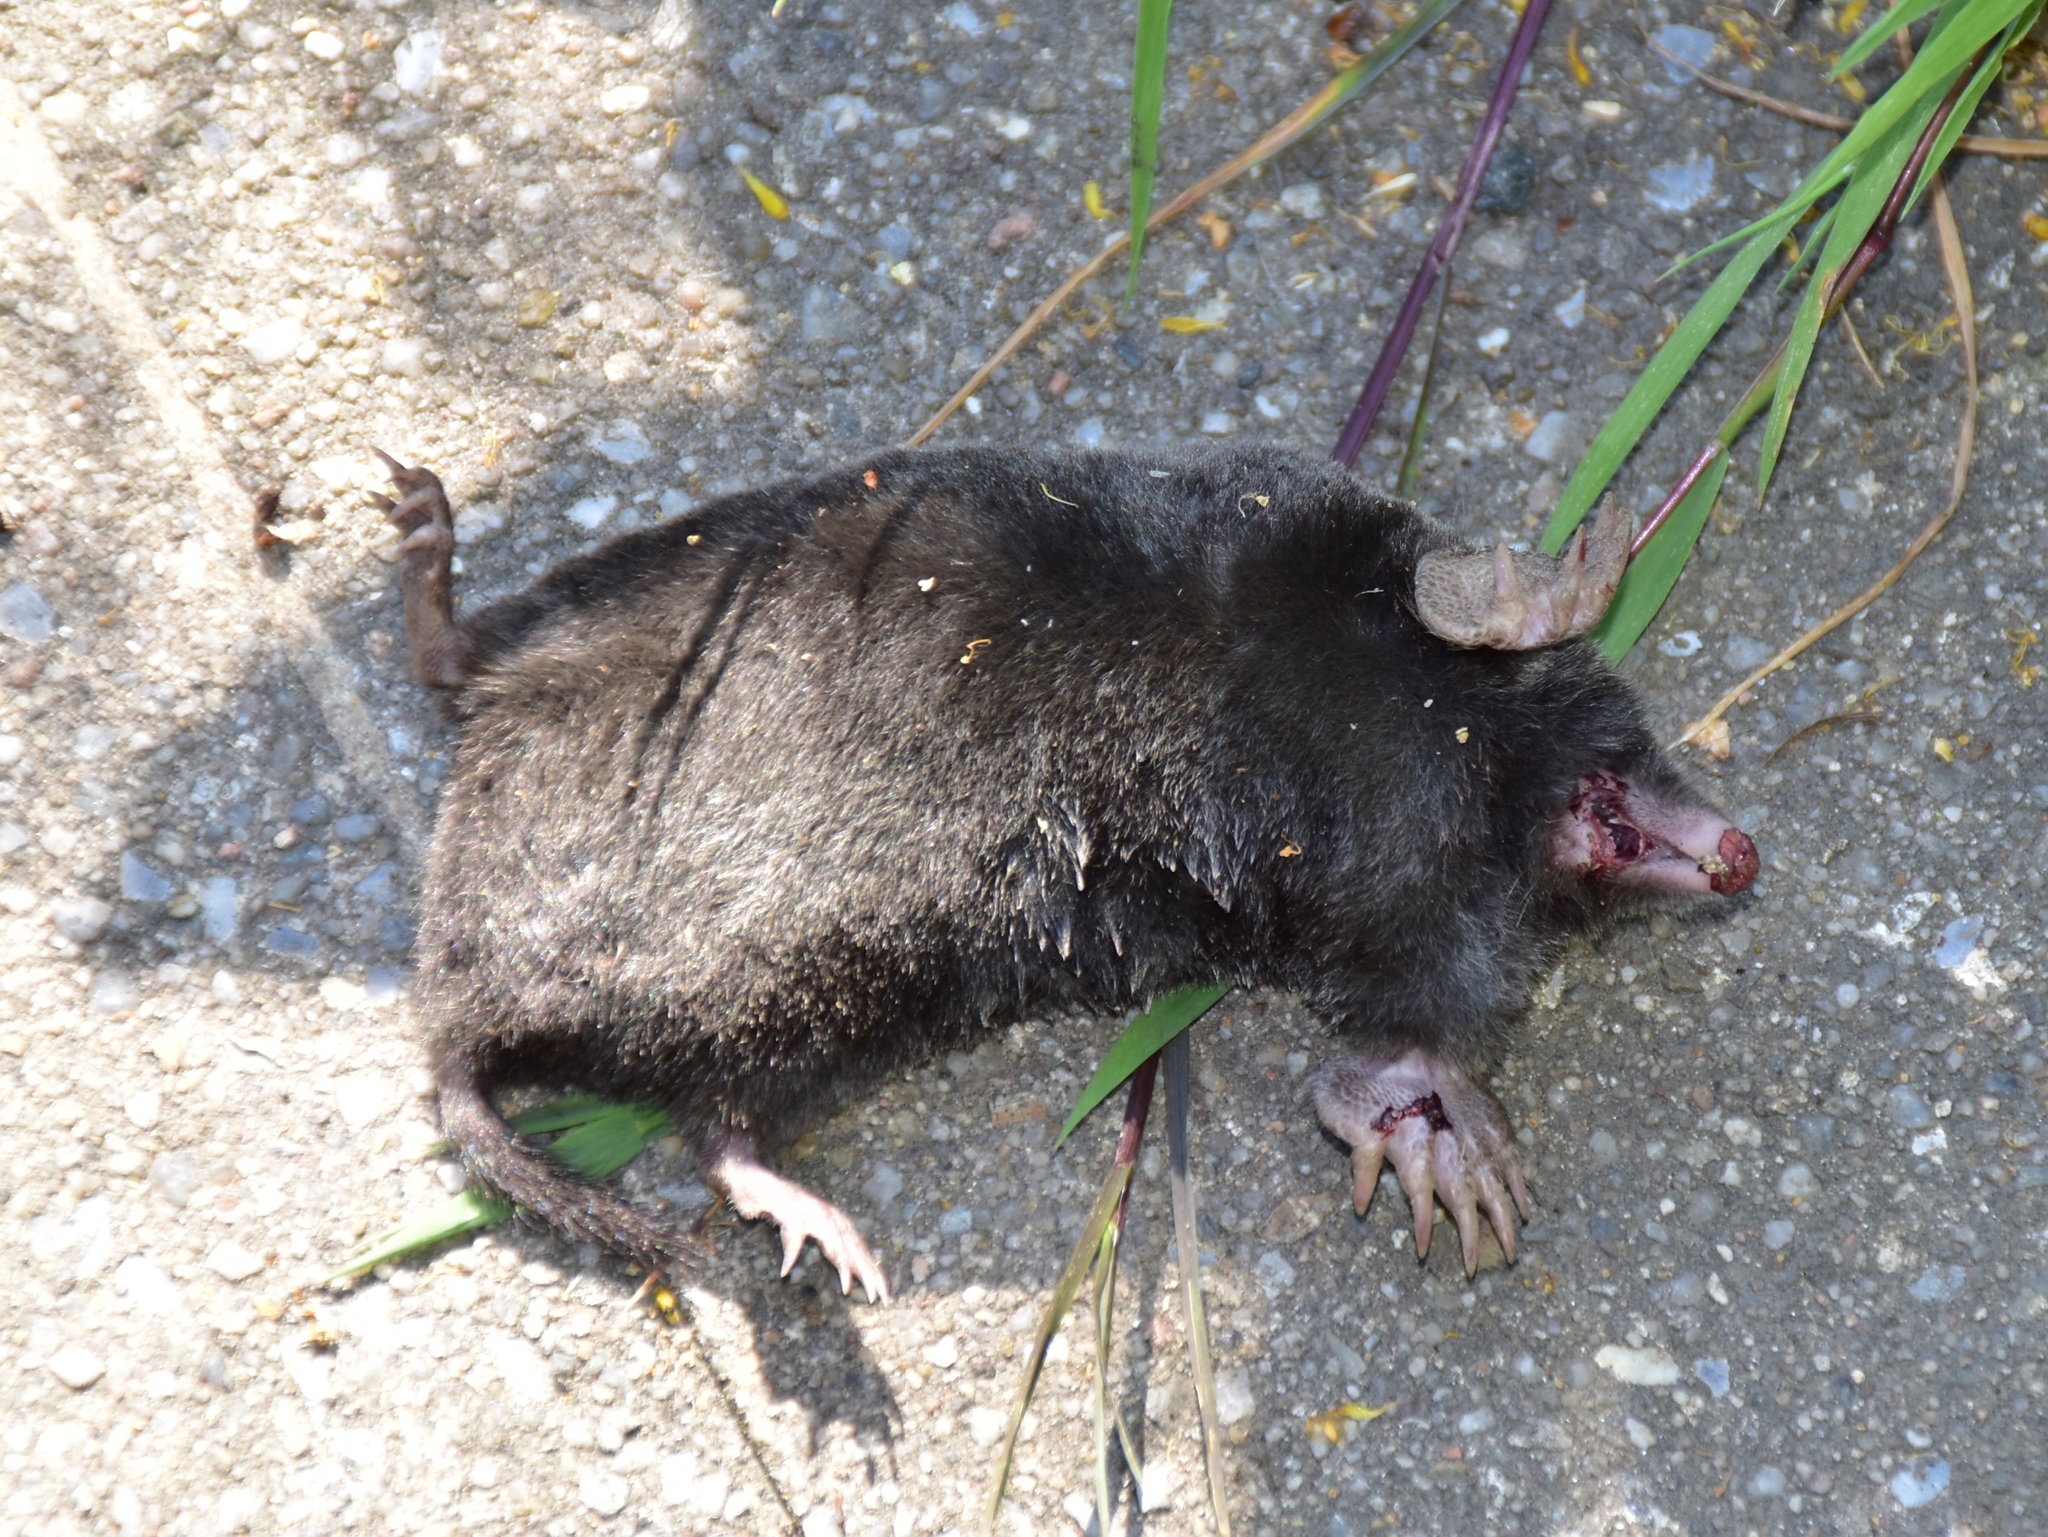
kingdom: Animalia
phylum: Chordata
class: Mammalia
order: Soricomorpha
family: Talpidae
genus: Talpa
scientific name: Talpa europaea
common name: European mole
